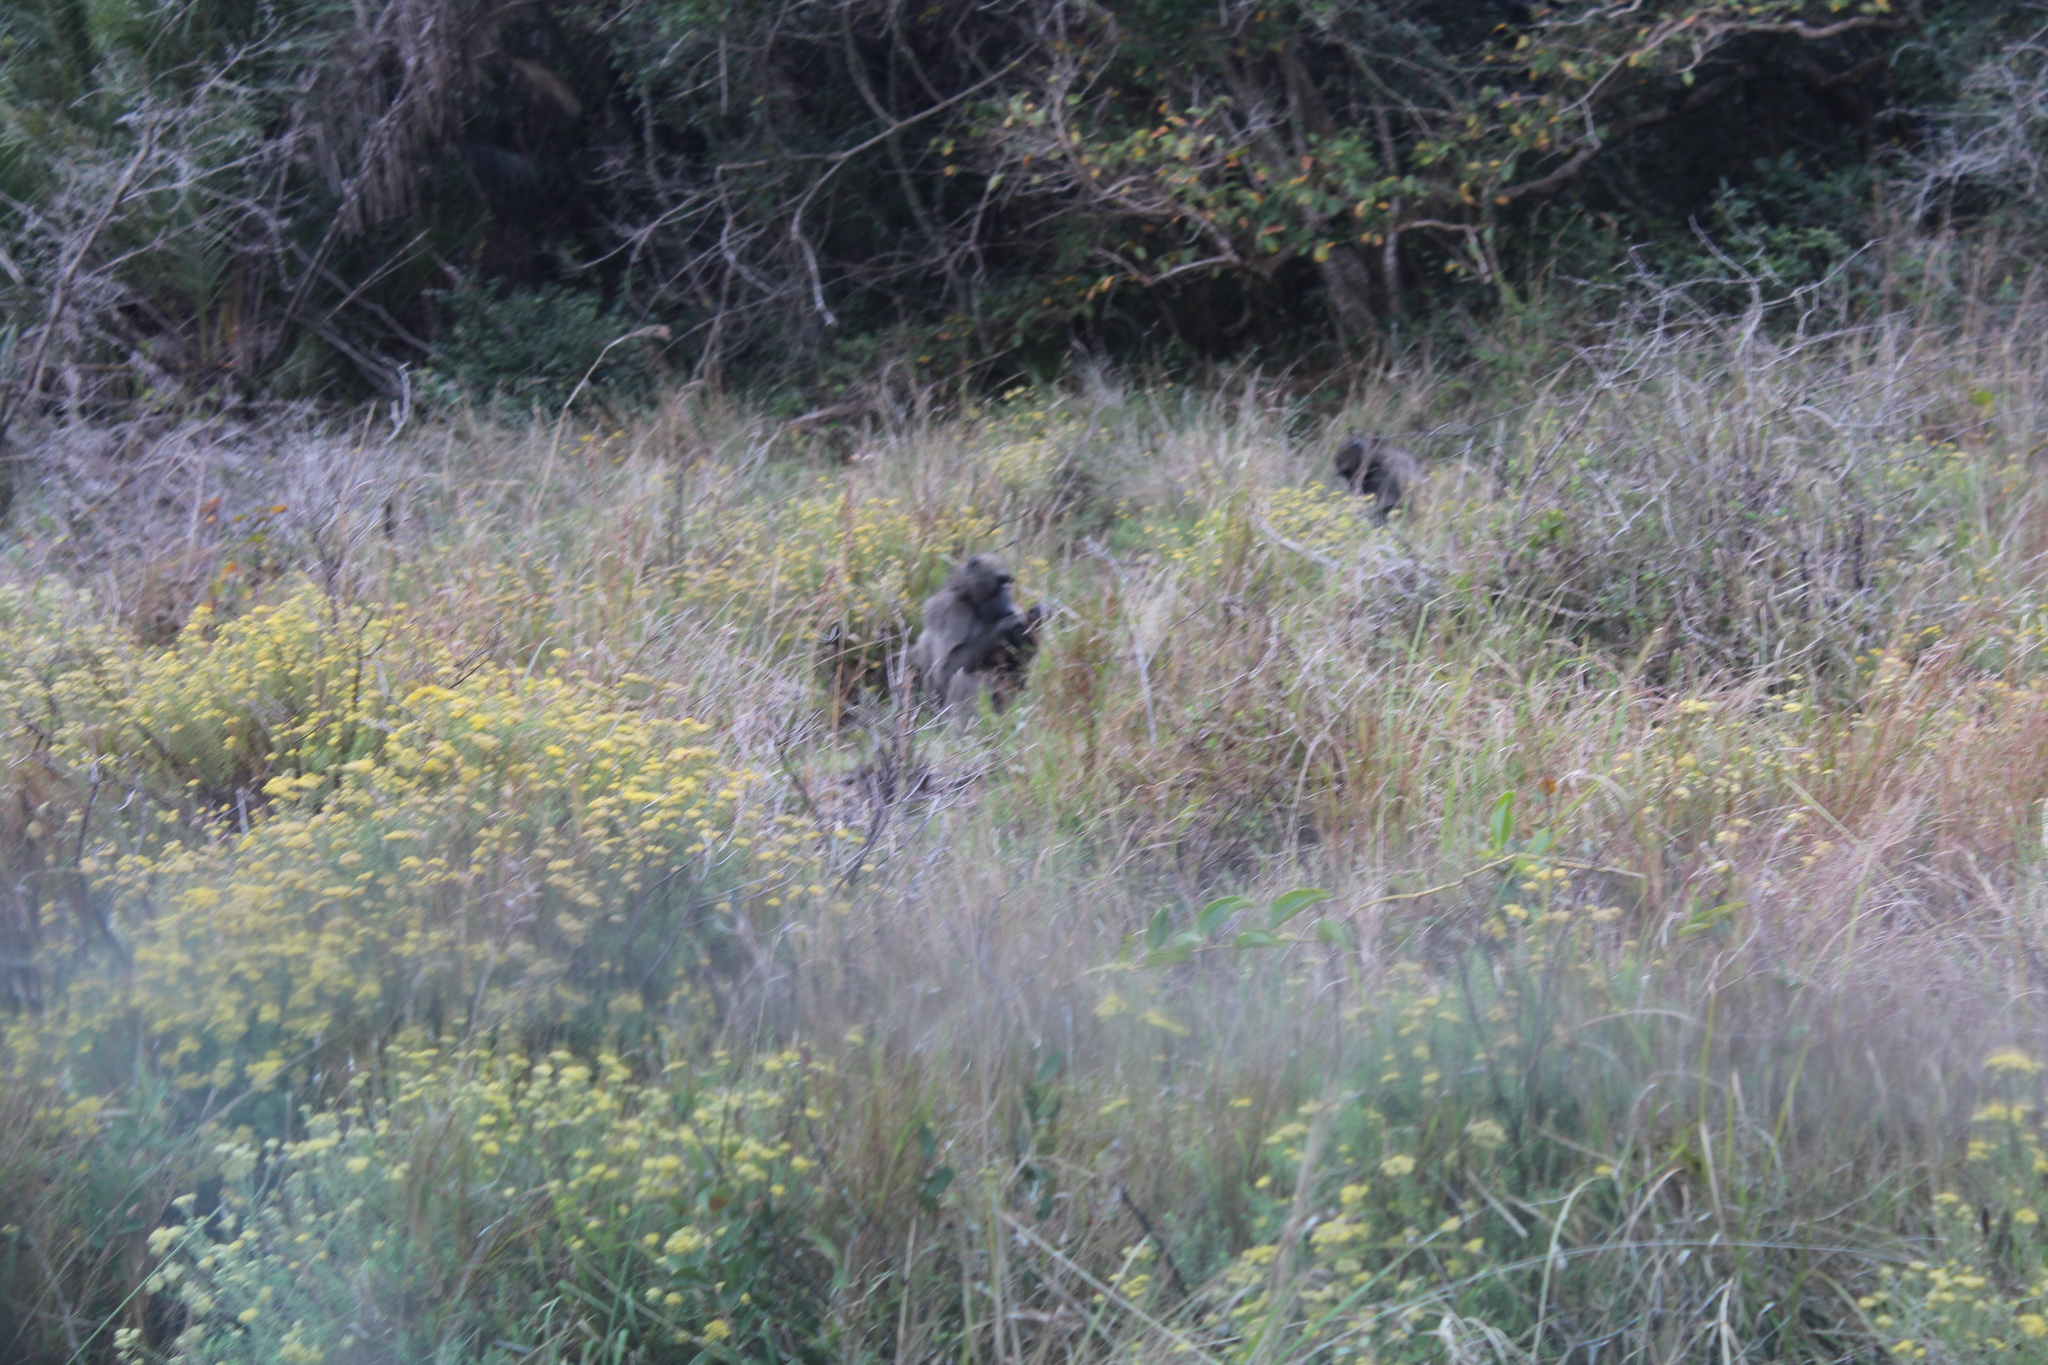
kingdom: Animalia
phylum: Chordata
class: Mammalia
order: Primates
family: Cercopithecidae
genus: Papio
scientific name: Papio ursinus
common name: Chacma baboon
